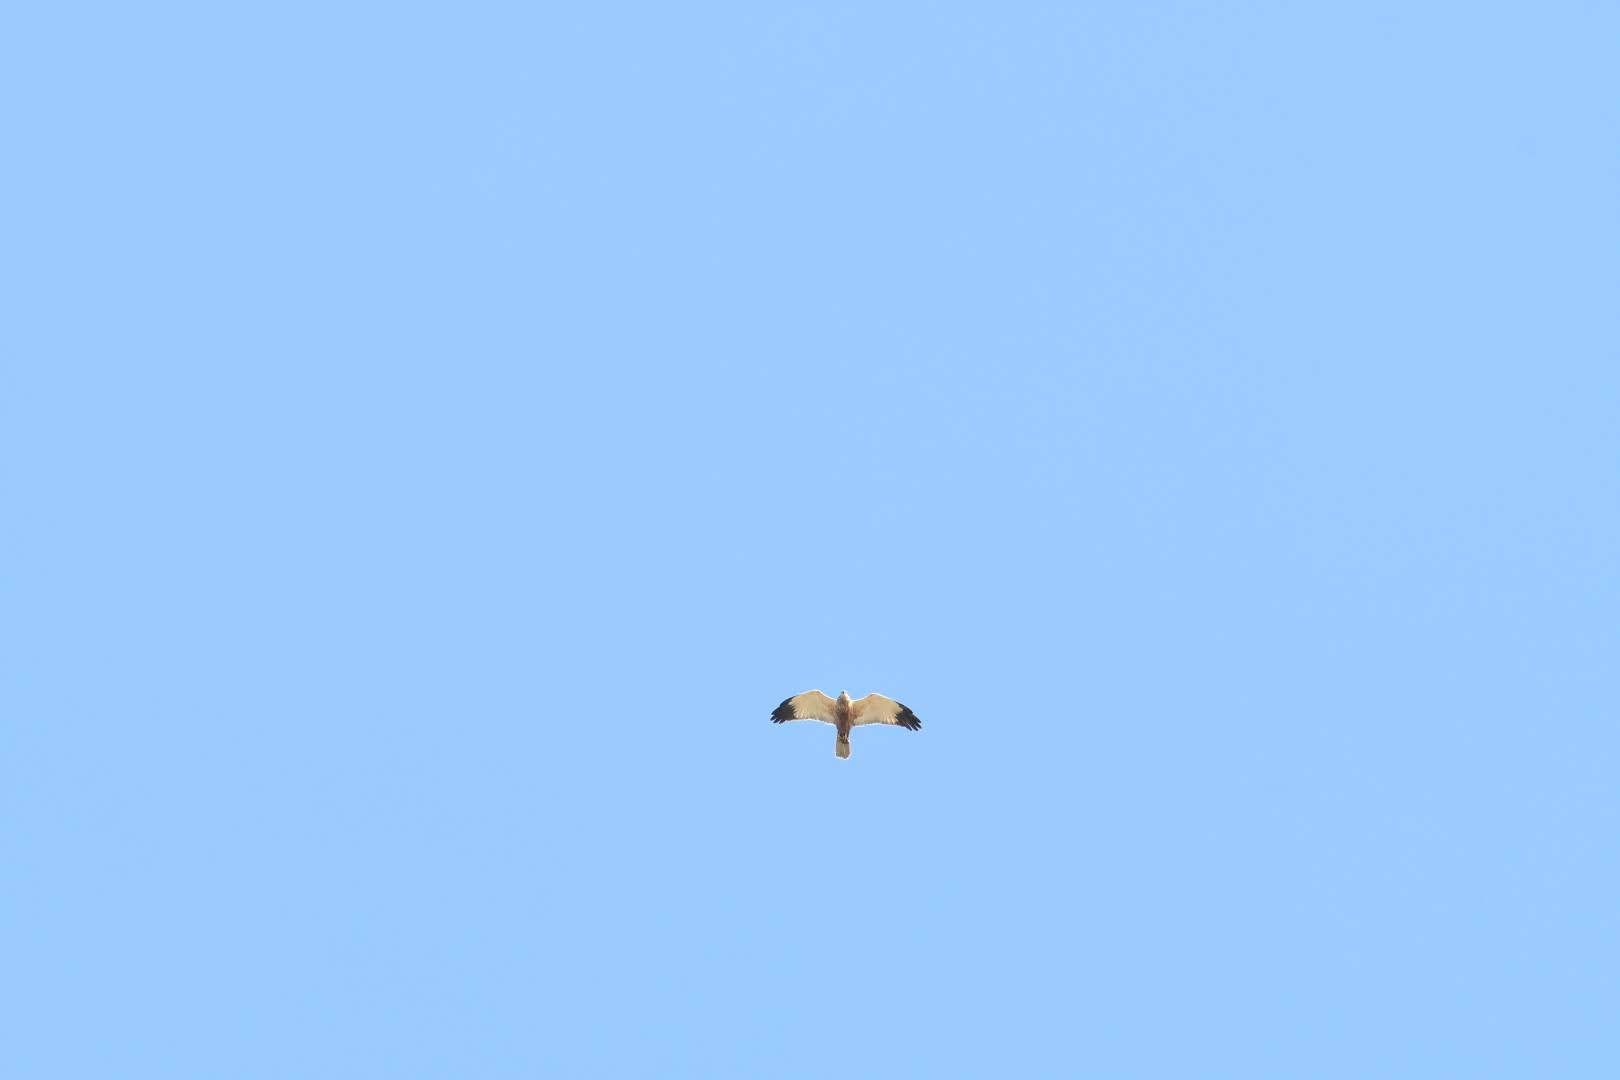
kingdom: Animalia
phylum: Chordata
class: Aves
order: Accipitriformes
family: Accipitridae
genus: Circus
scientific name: Circus aeruginosus
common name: Western marsh harrier
